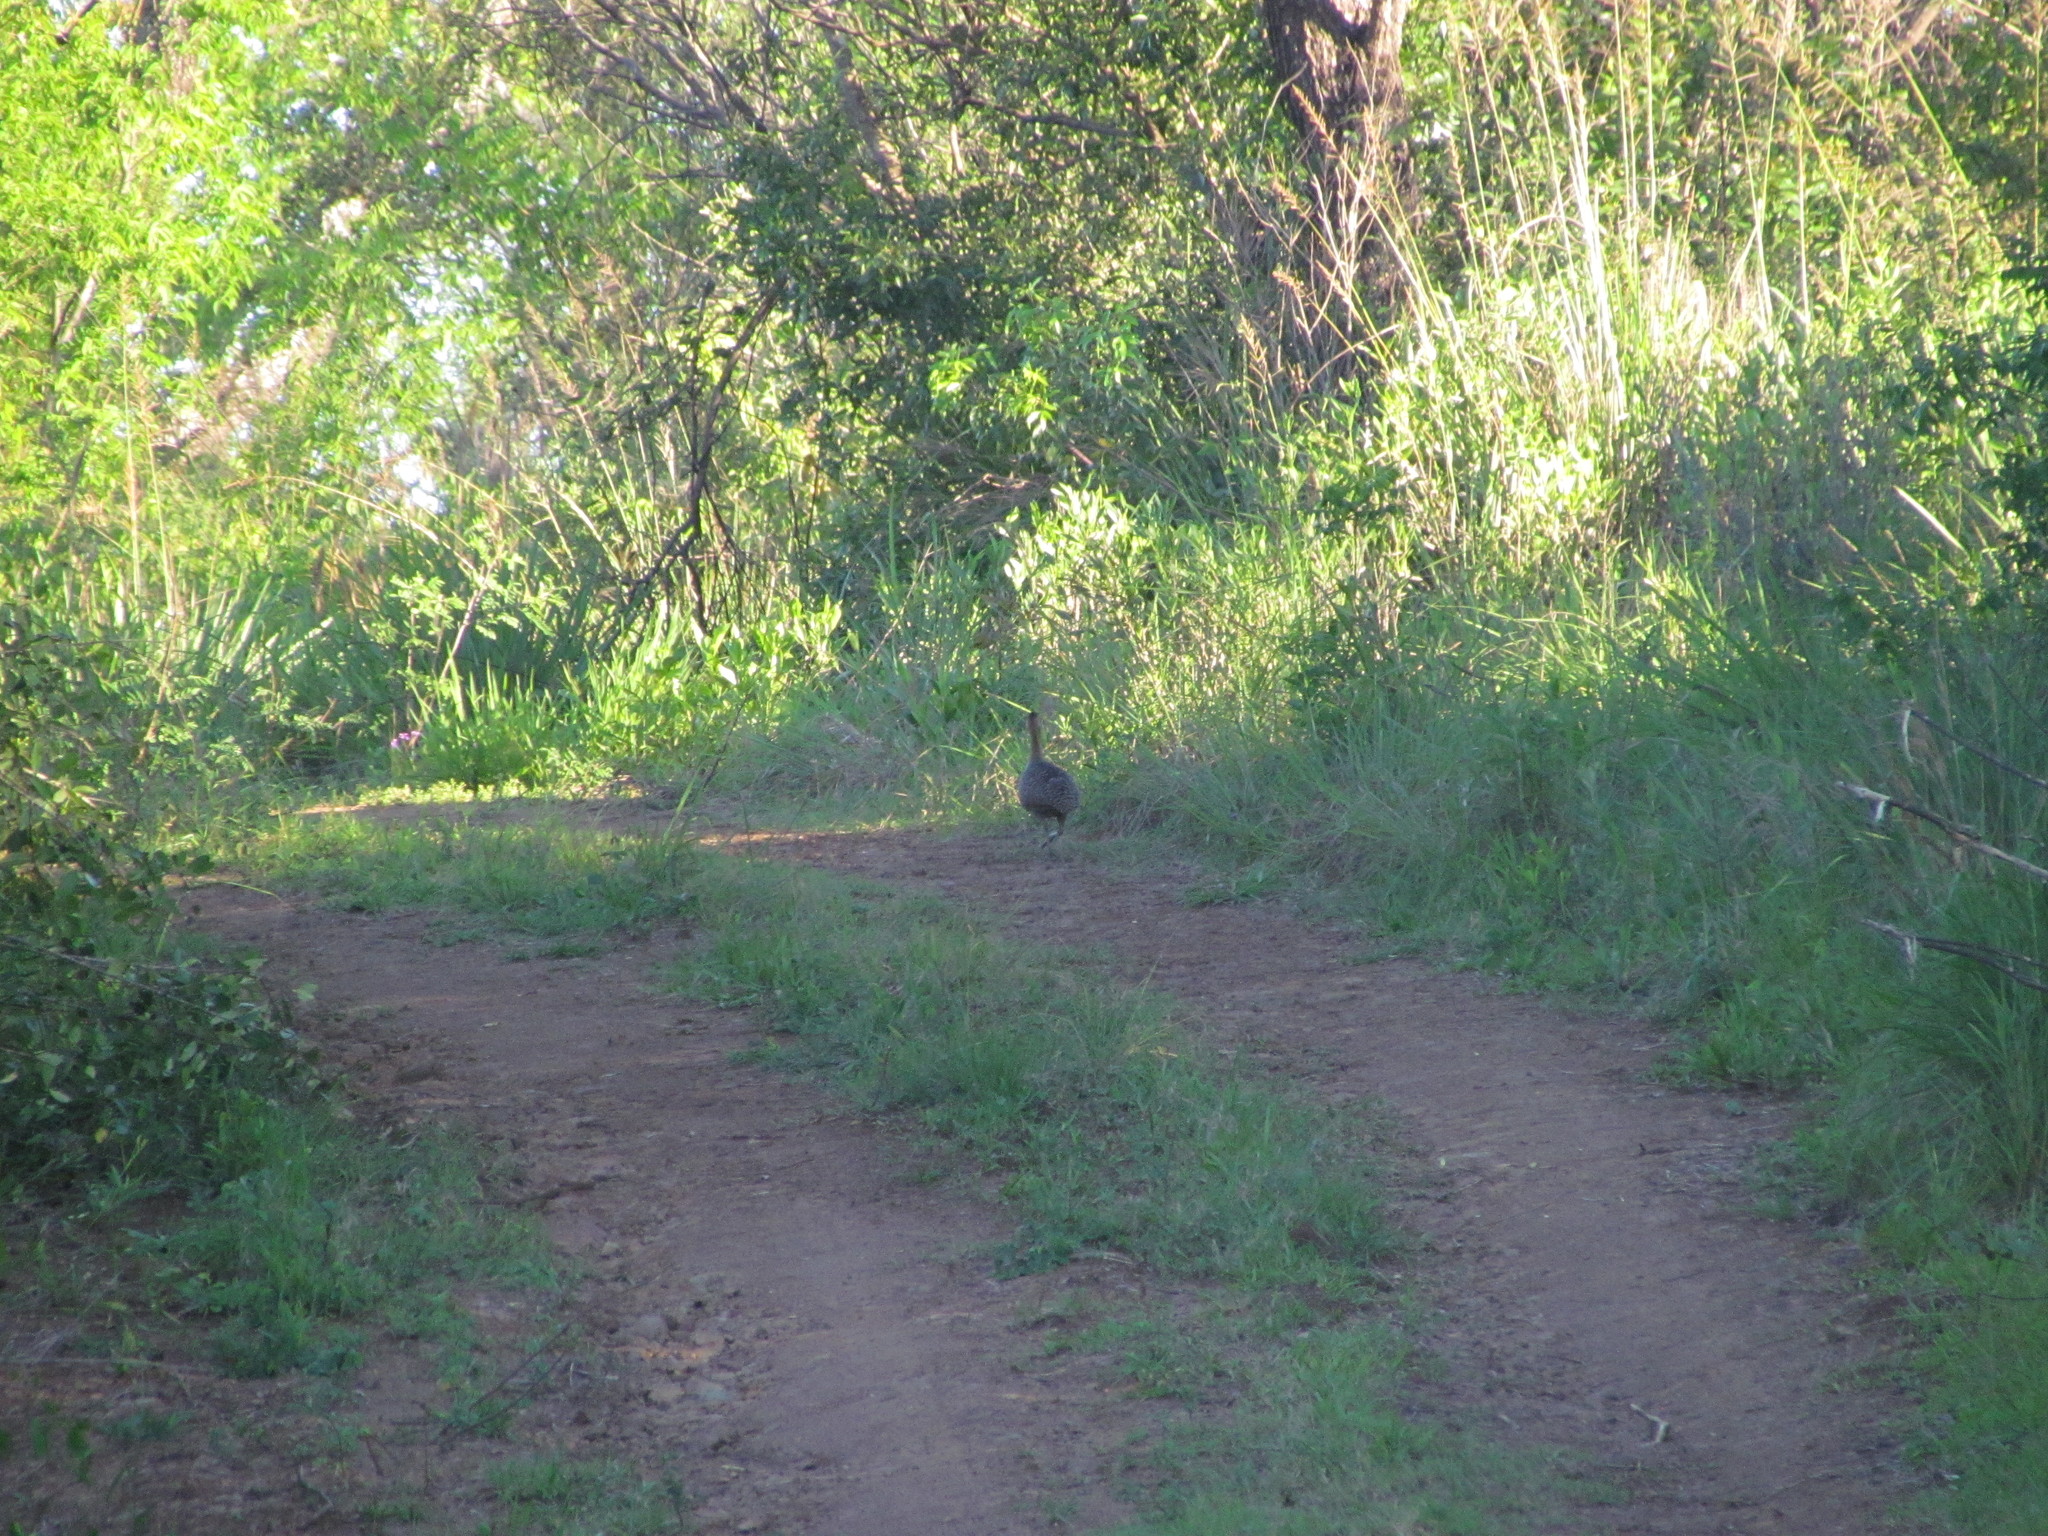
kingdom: Animalia
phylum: Chordata
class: Aves
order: Tinamiformes
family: Tinamidae
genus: Rhynchotus
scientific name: Rhynchotus rufescens
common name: Red-winged tinamou
